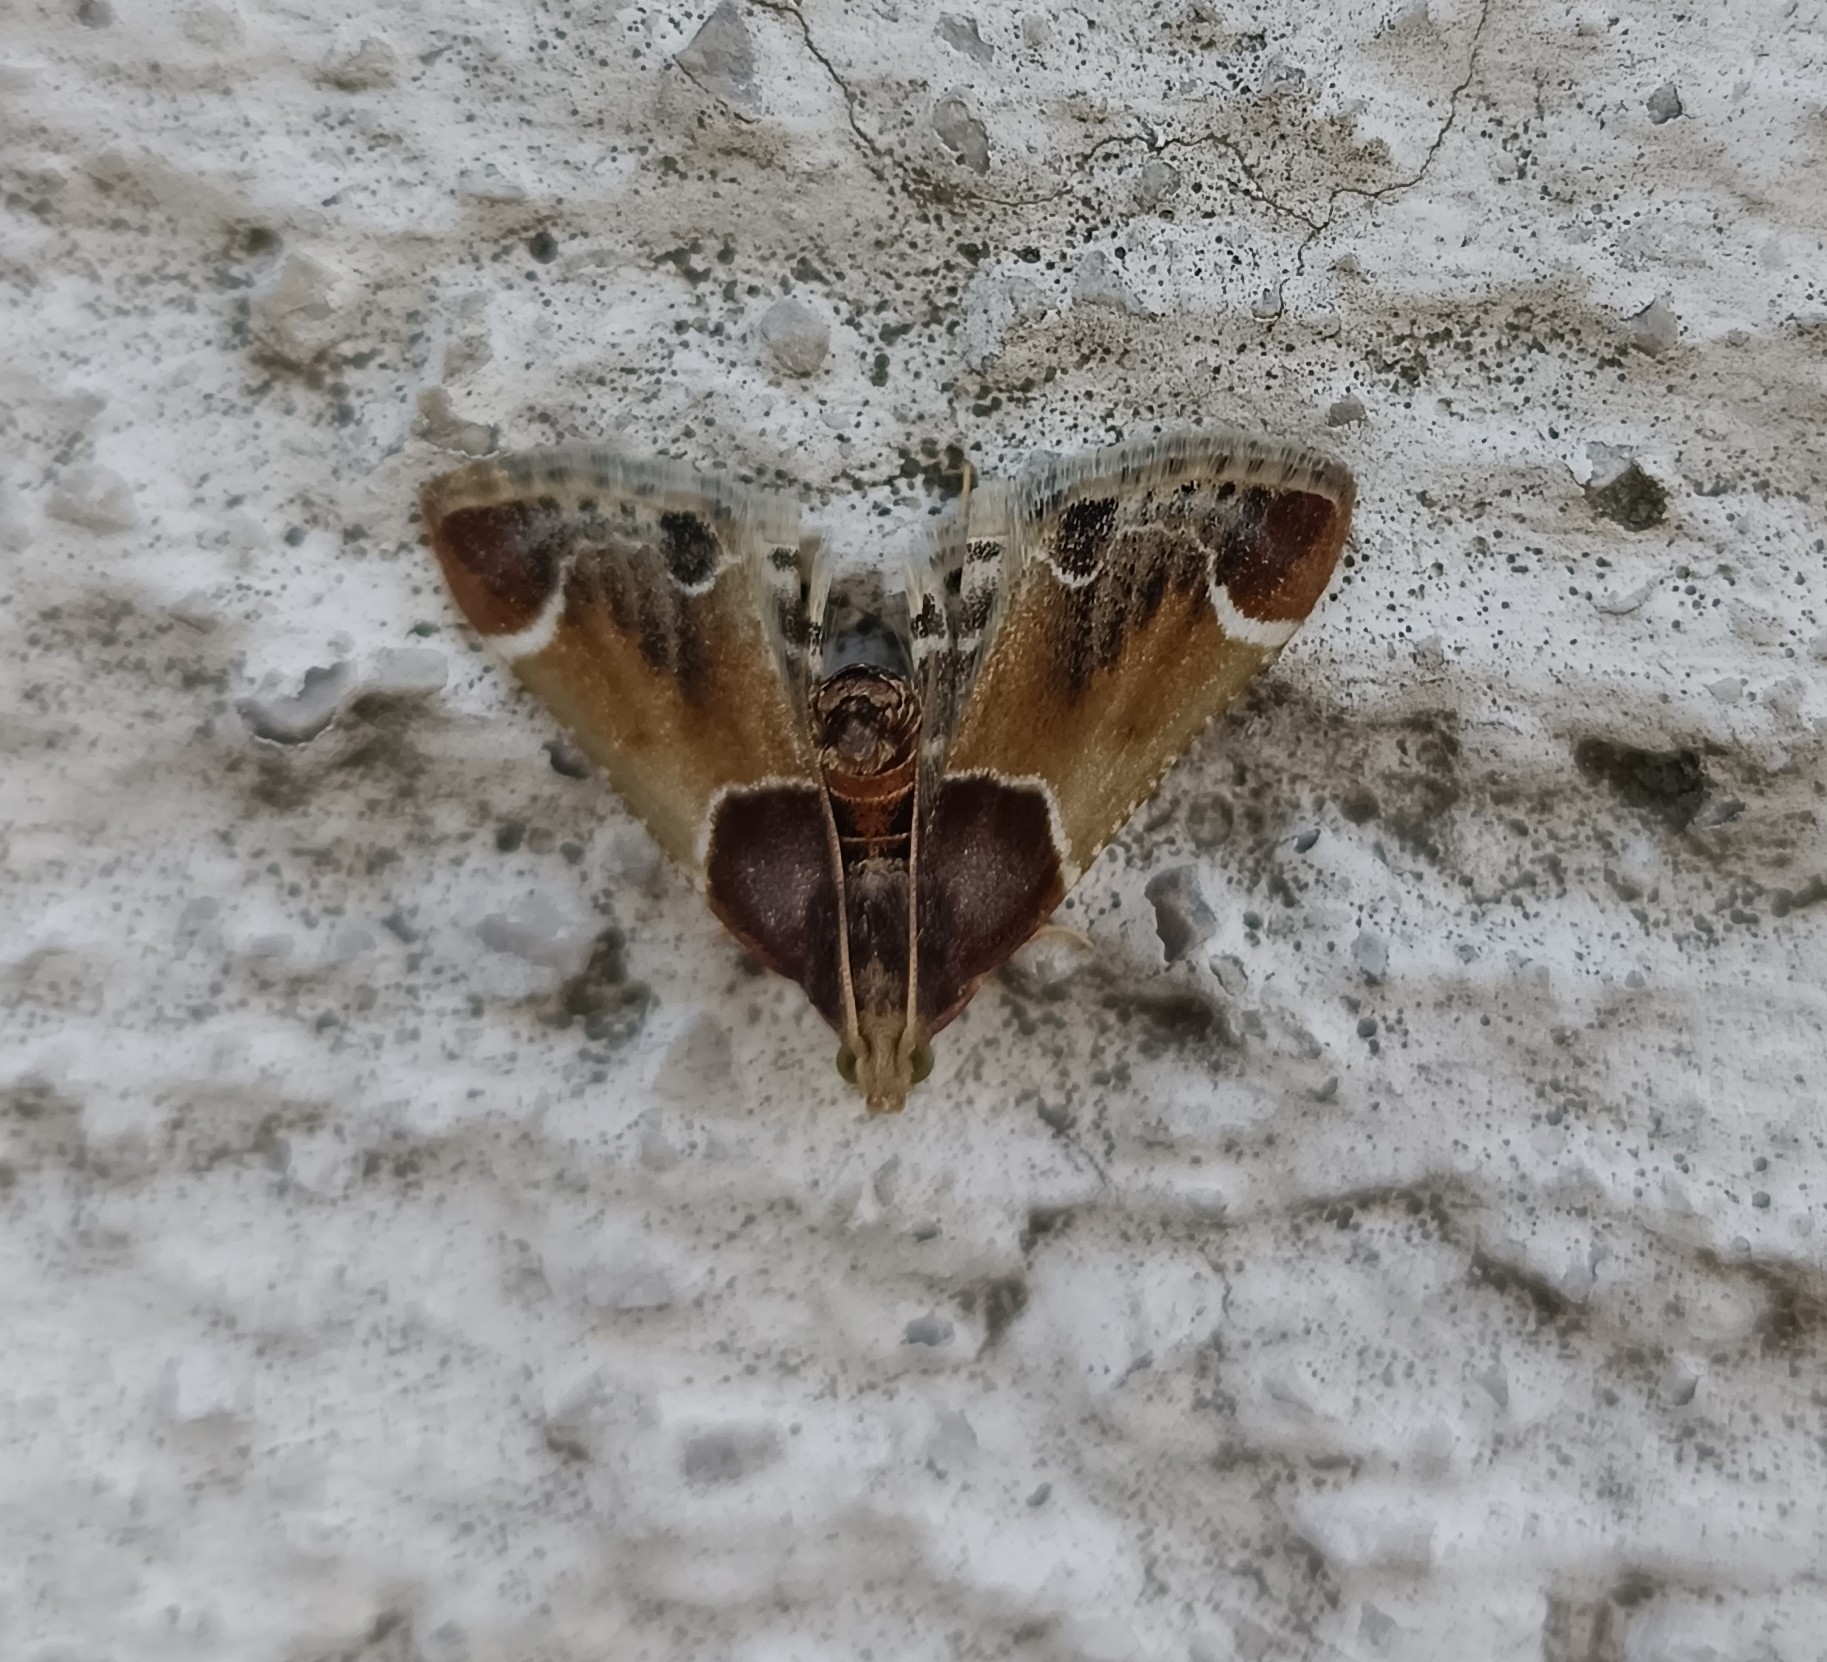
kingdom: Animalia
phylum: Arthropoda
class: Insecta
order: Lepidoptera
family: Pyralidae
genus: Pyralis
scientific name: Pyralis farinalis
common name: Meal moth
